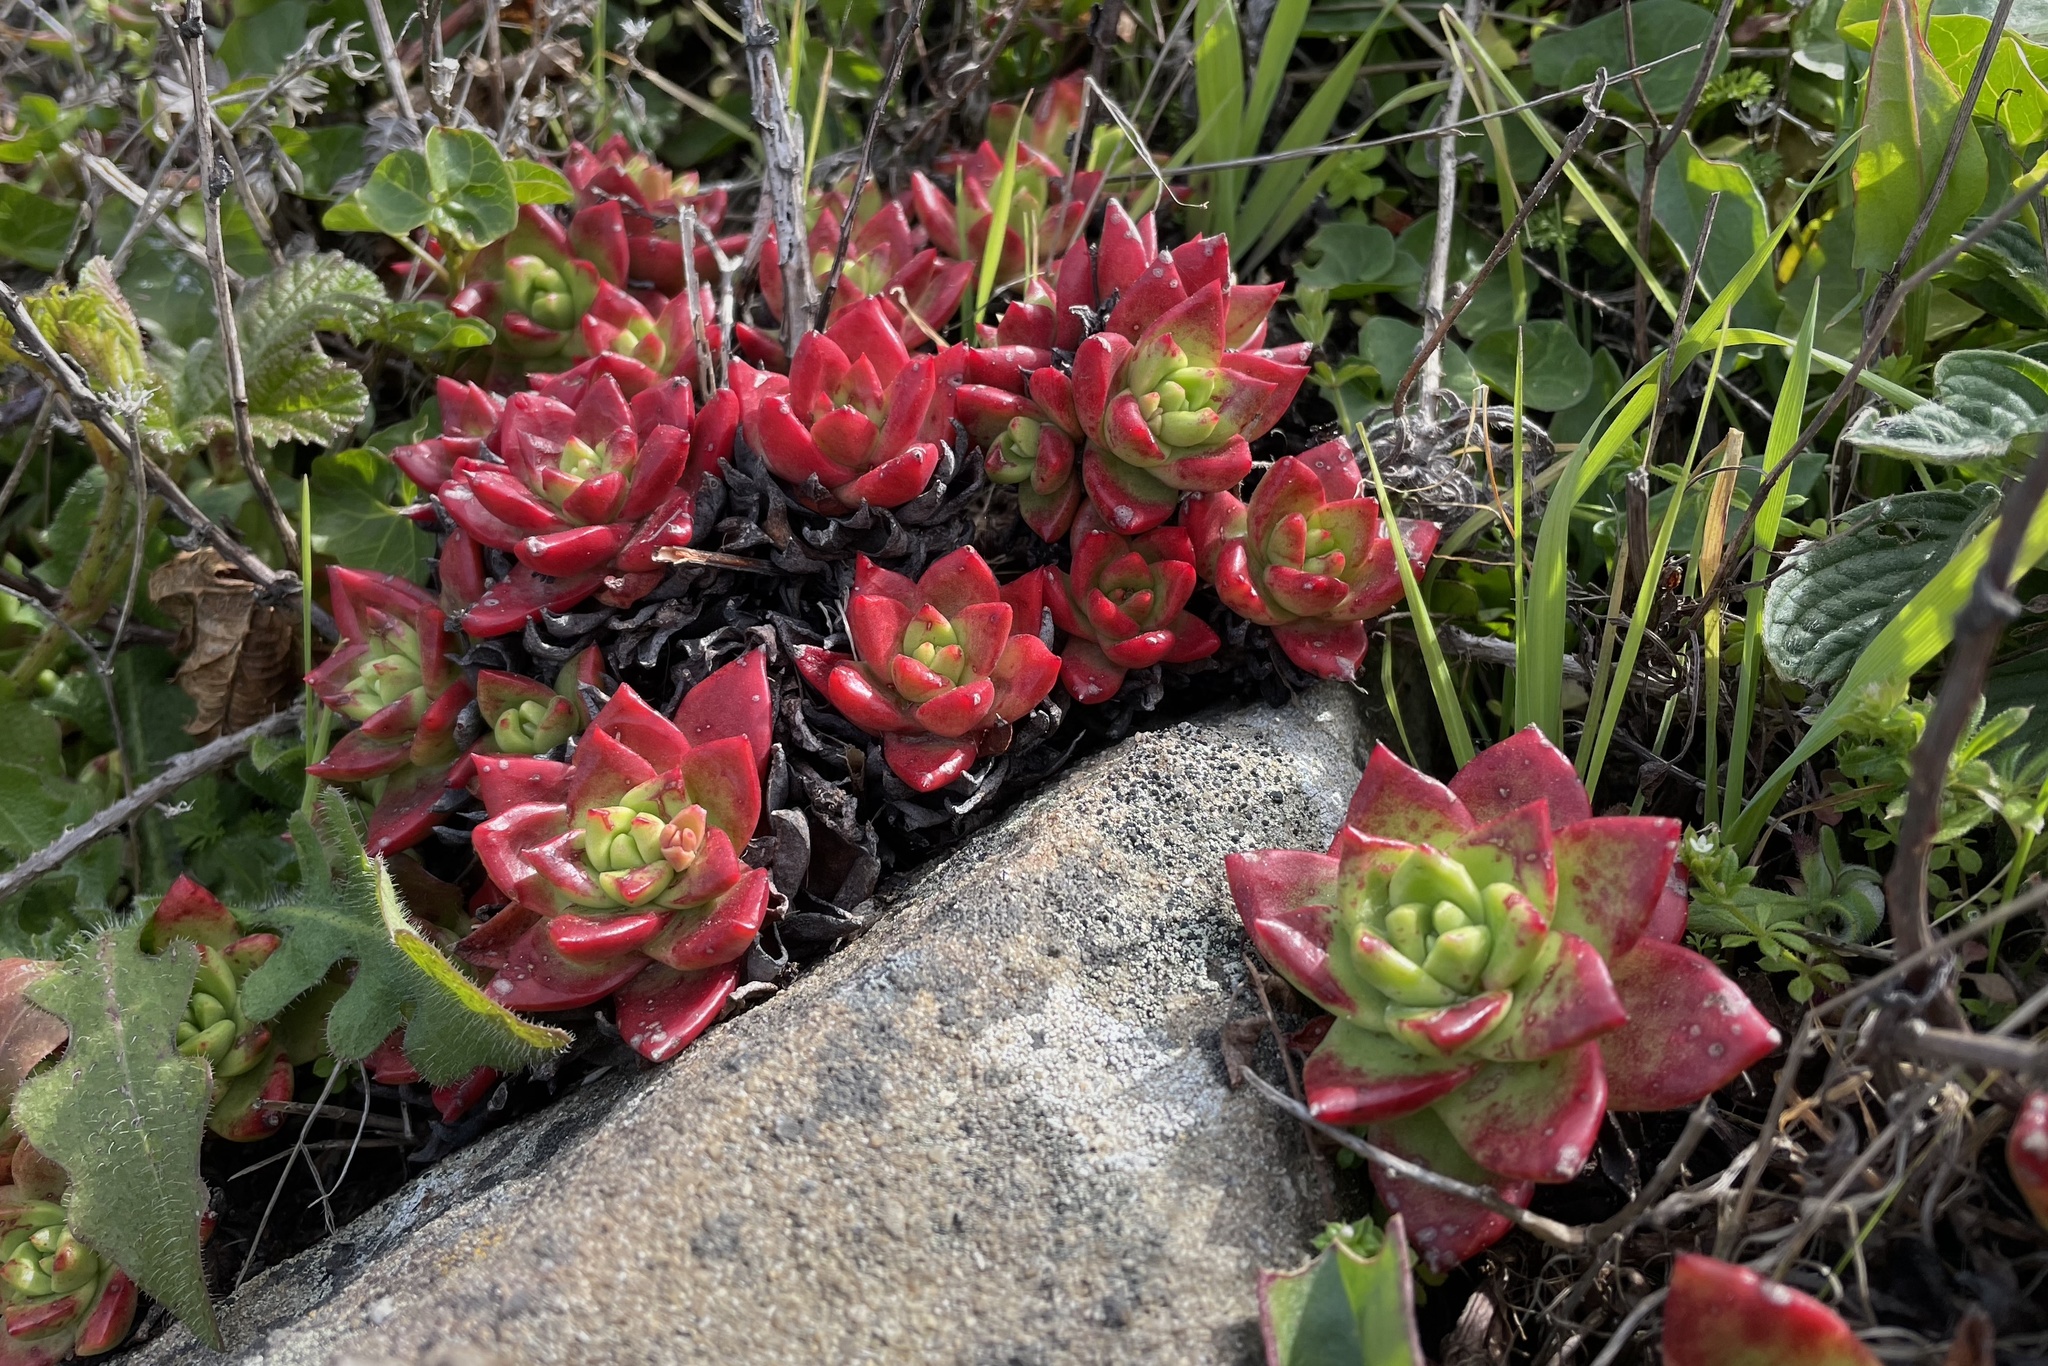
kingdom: Plantae
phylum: Tracheophyta
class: Magnoliopsida
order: Saxifragales
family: Crassulaceae
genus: Dudleya
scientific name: Dudleya farinosa
